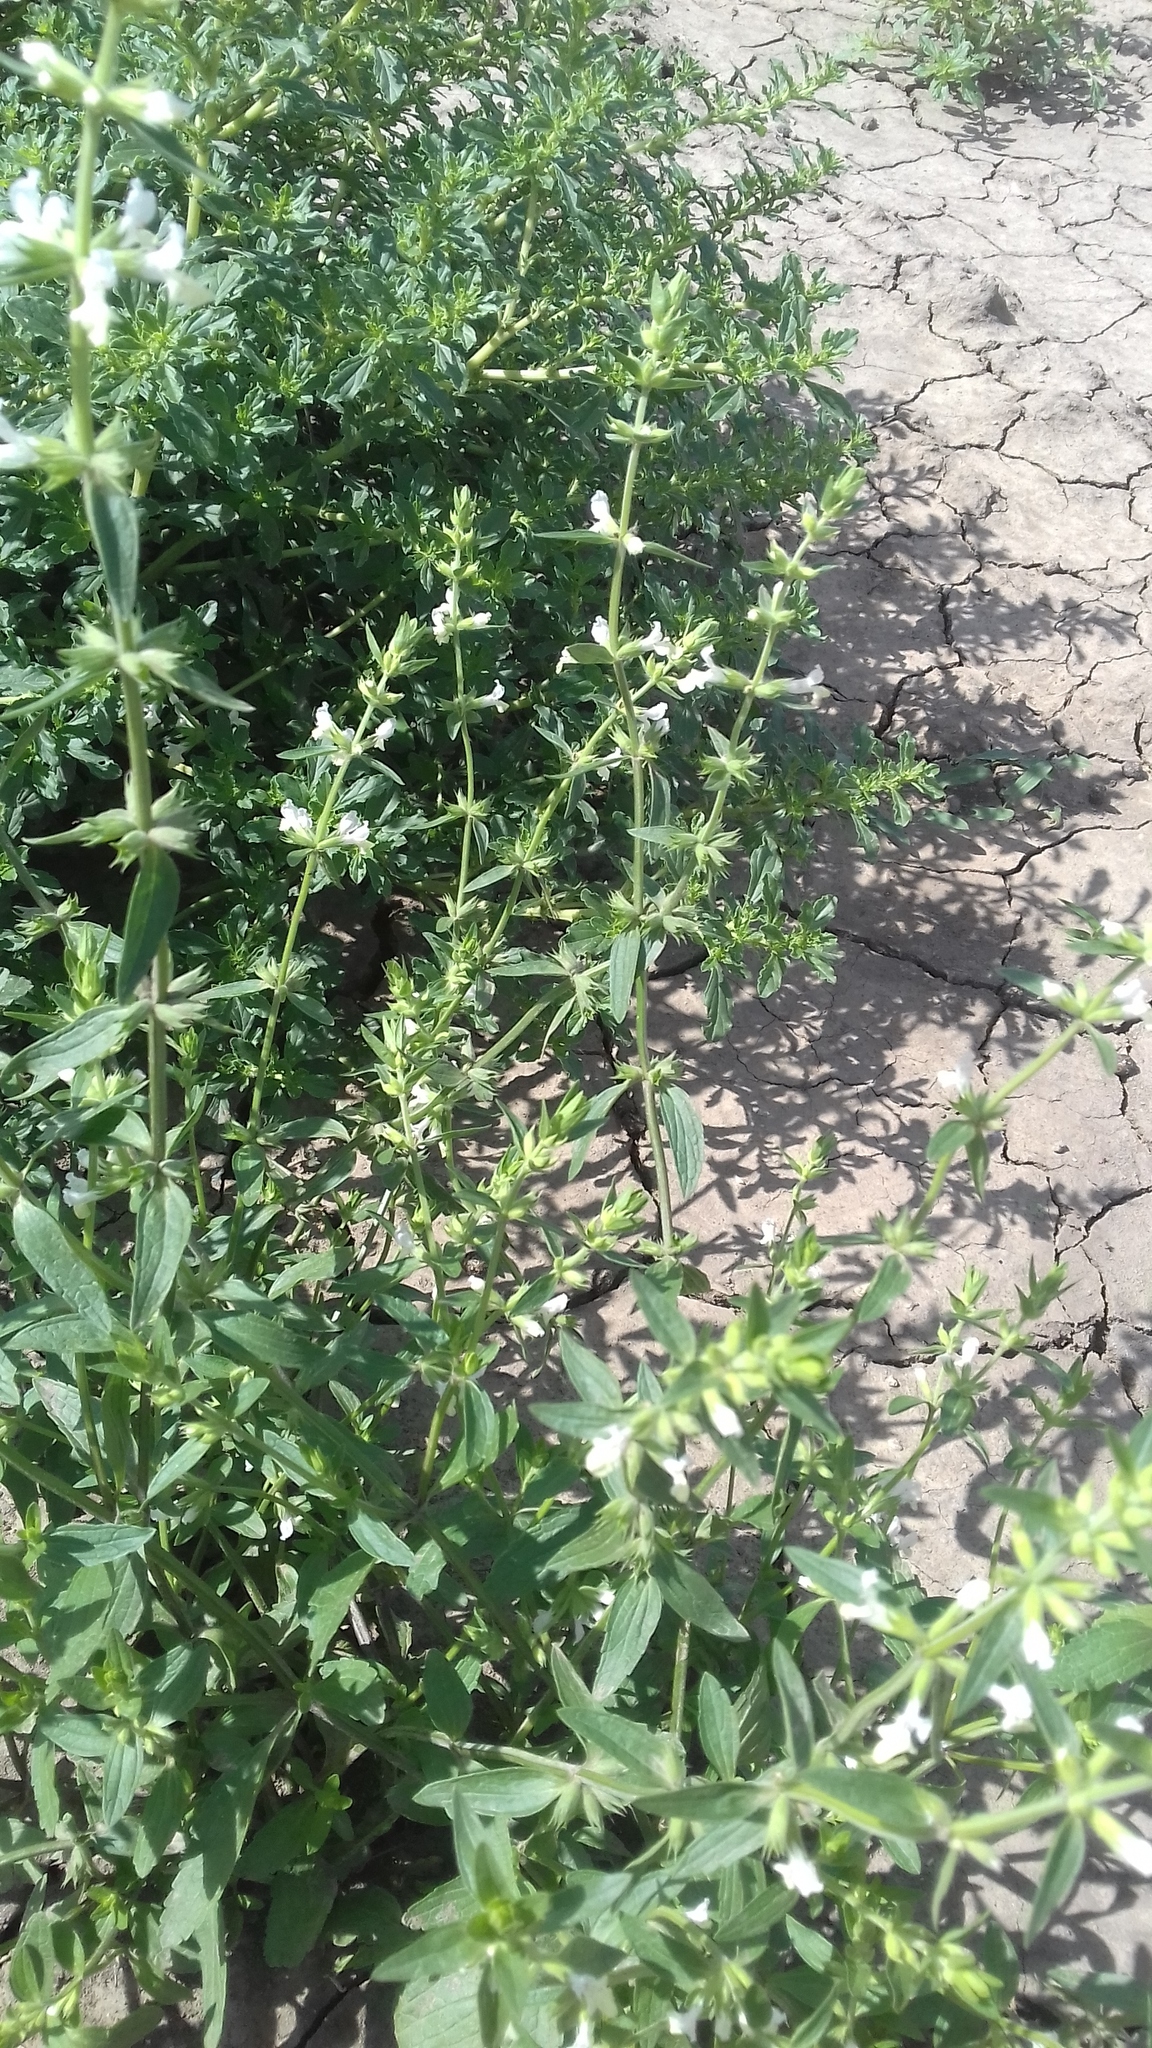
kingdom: Plantae
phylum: Tracheophyta
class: Magnoliopsida
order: Lamiales
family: Lamiaceae
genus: Stachys
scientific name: Stachys recta
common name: Perennial yellow-woundwort
